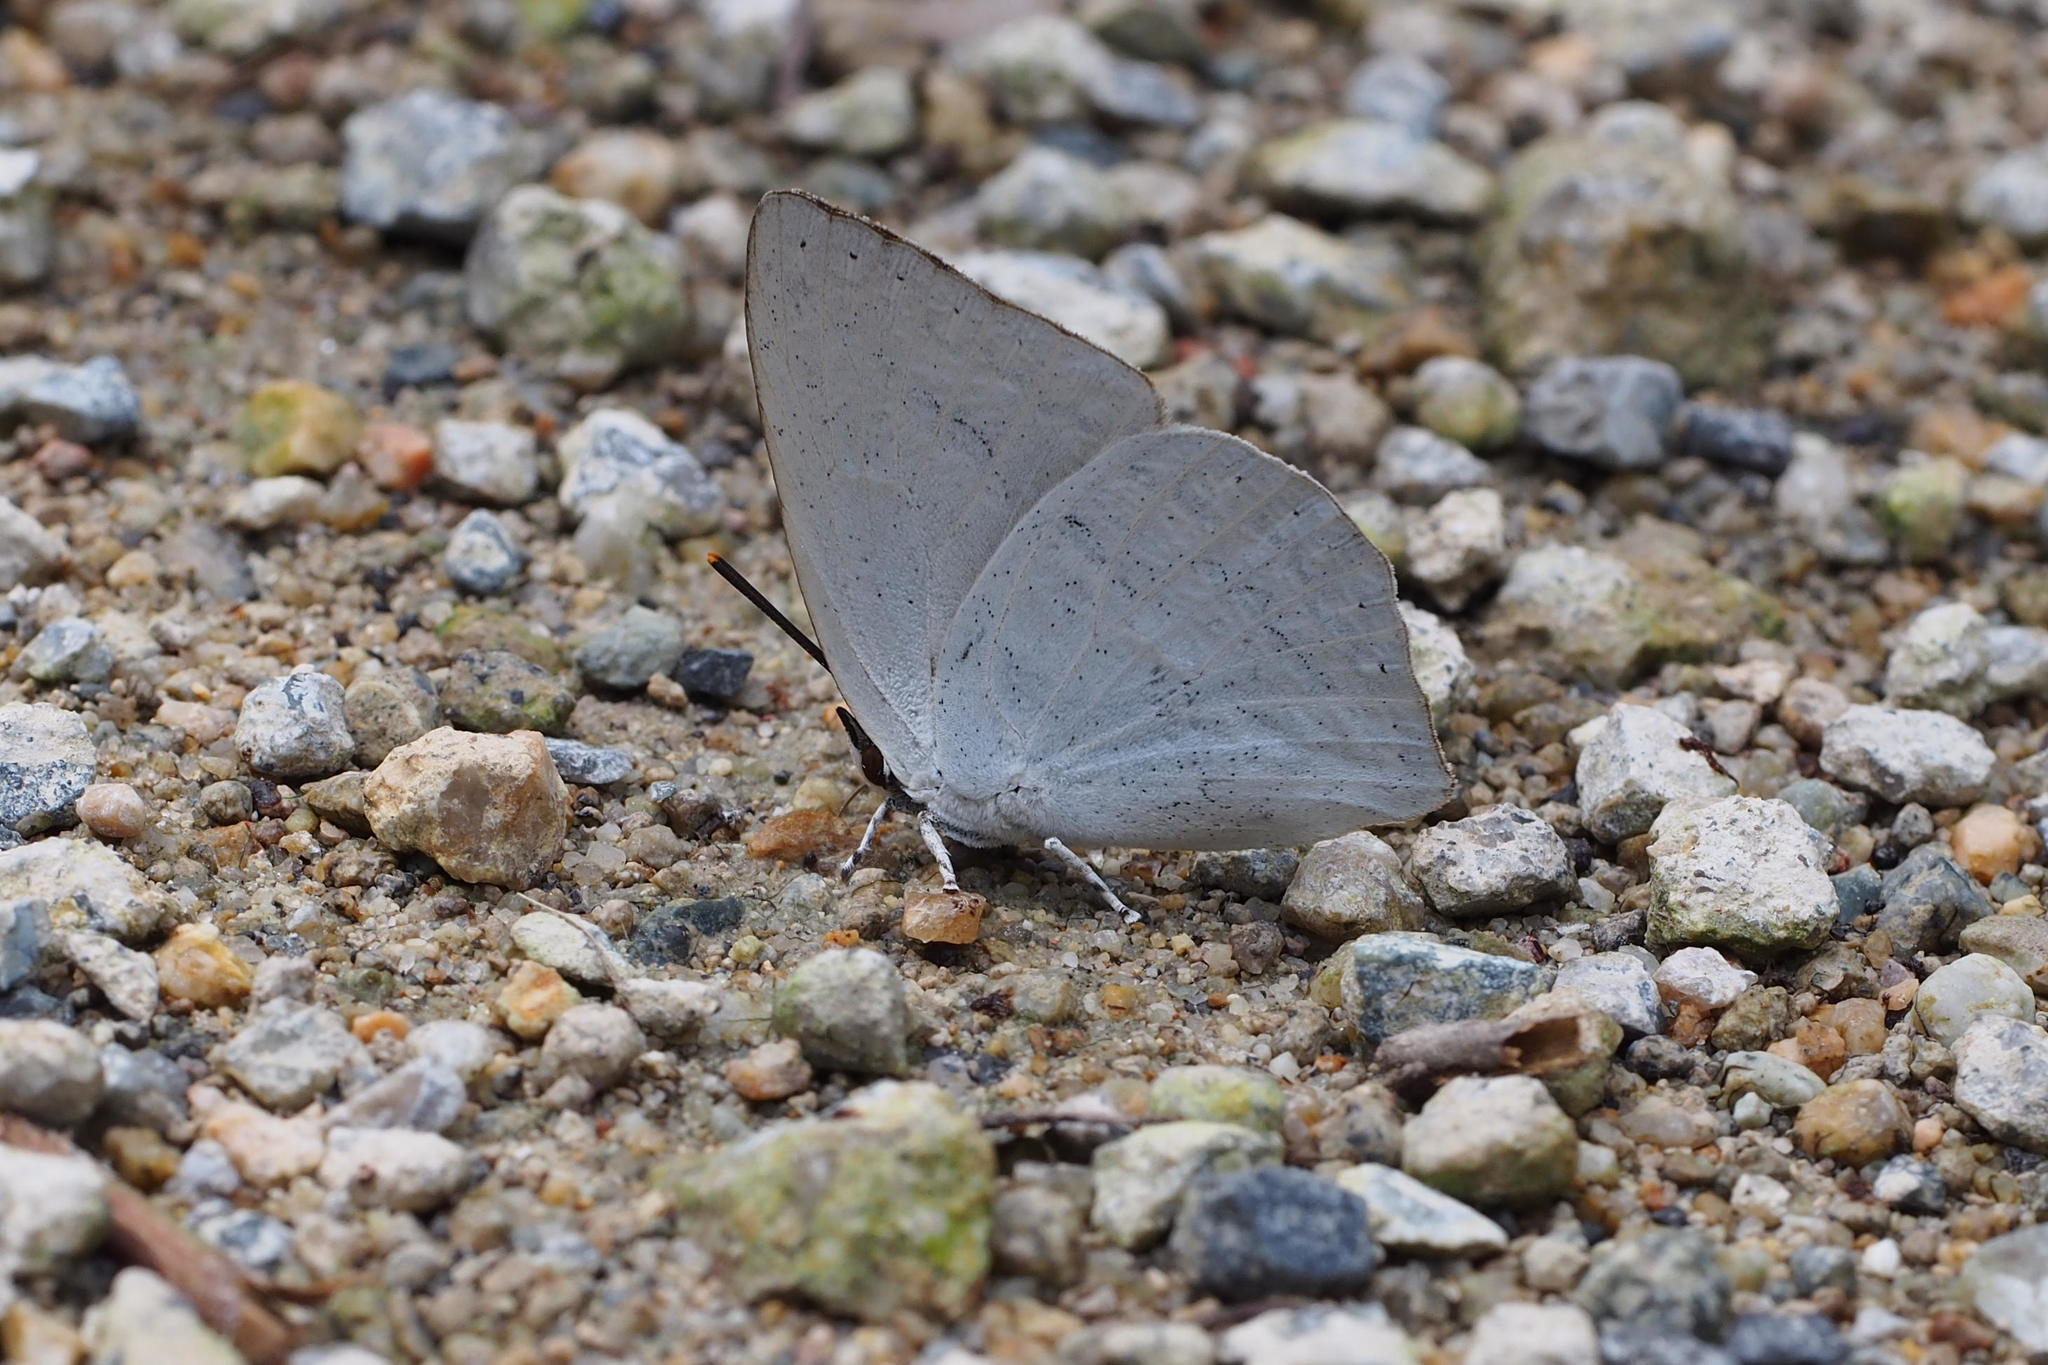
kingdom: Animalia
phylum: Arthropoda
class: Insecta
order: Lepidoptera
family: Lycaenidae
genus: Curetis
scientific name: Curetis acuta
